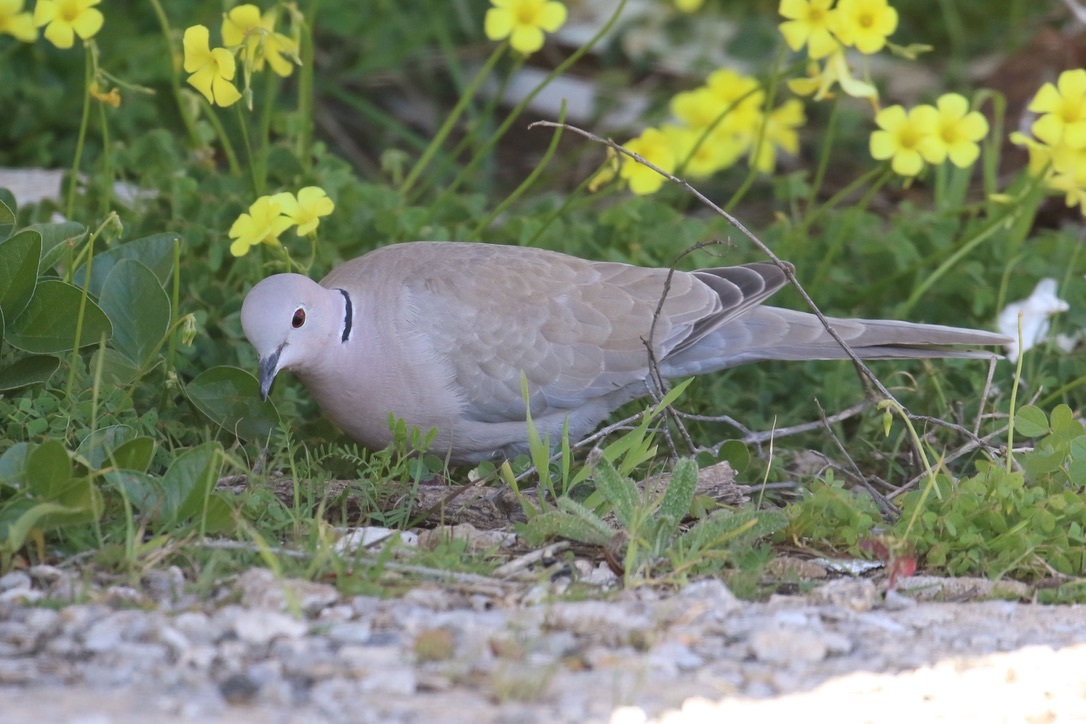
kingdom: Animalia
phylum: Chordata
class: Aves
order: Columbiformes
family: Columbidae
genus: Streptopelia
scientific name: Streptopelia decaocto
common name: Eurasian collared dove
